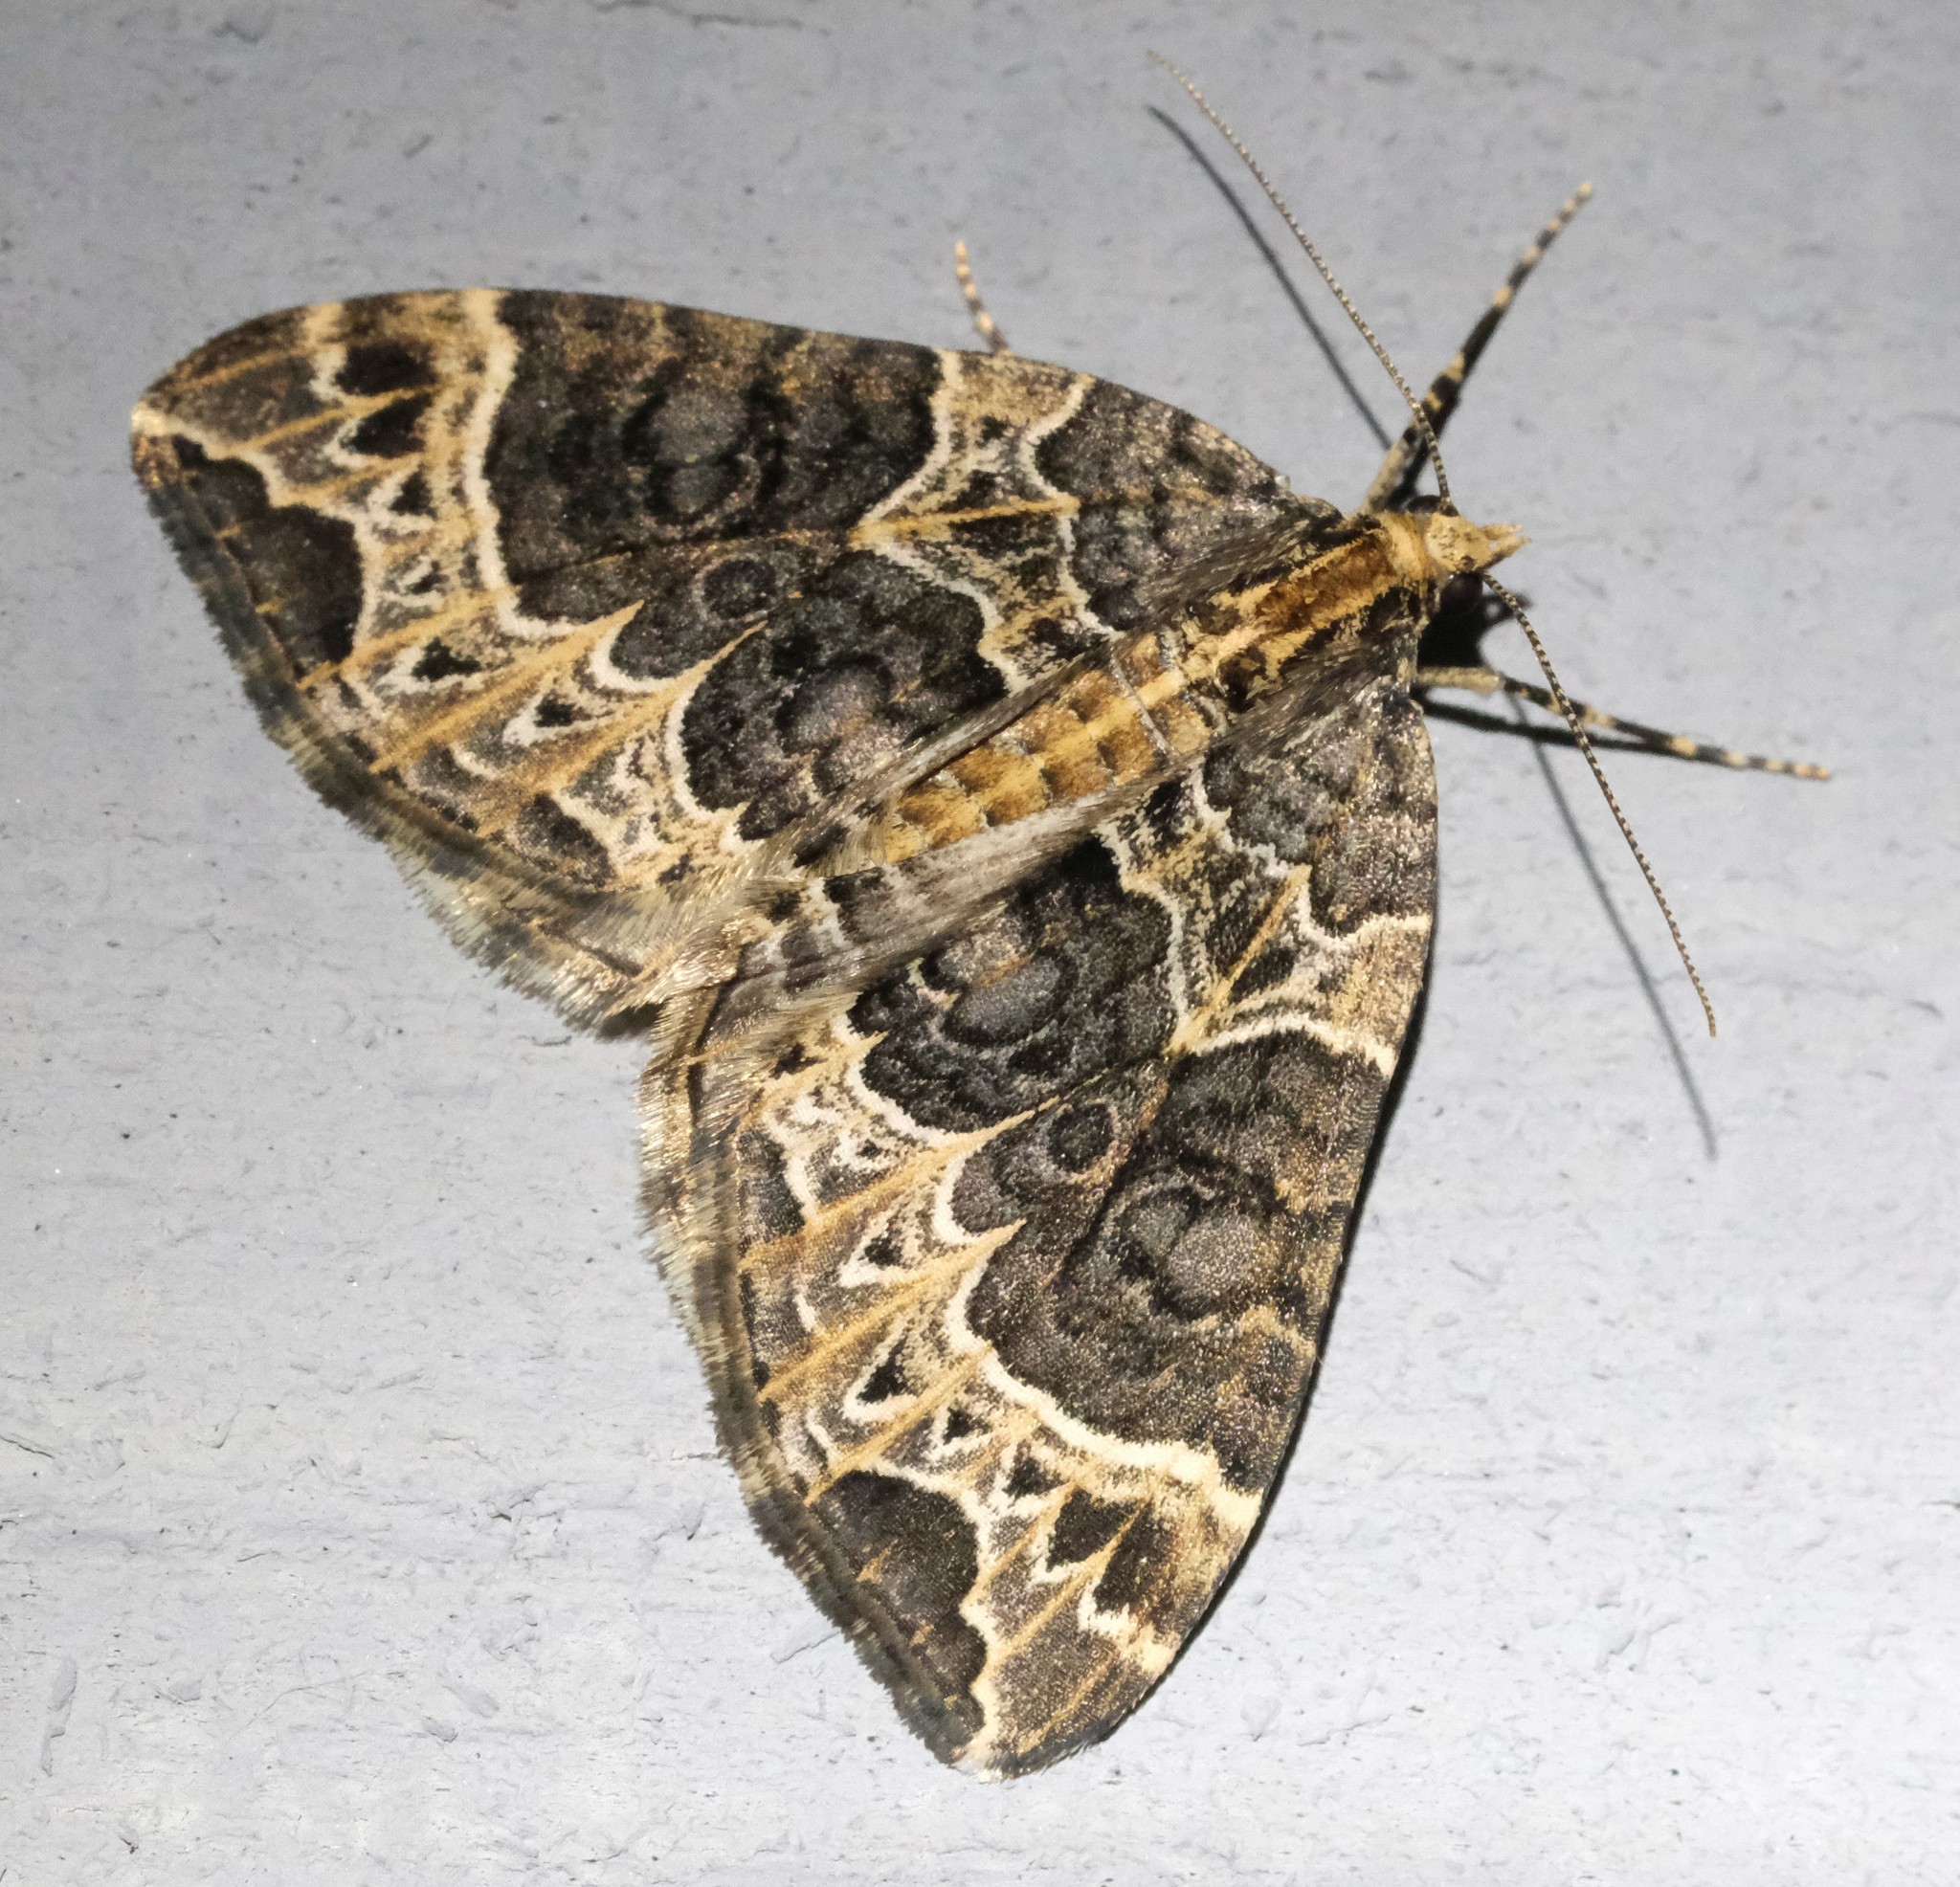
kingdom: Animalia
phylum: Arthropoda
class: Insecta
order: Lepidoptera
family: Geometridae
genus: Ecliptopera
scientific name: Ecliptopera silaceata
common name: Small phoenix
